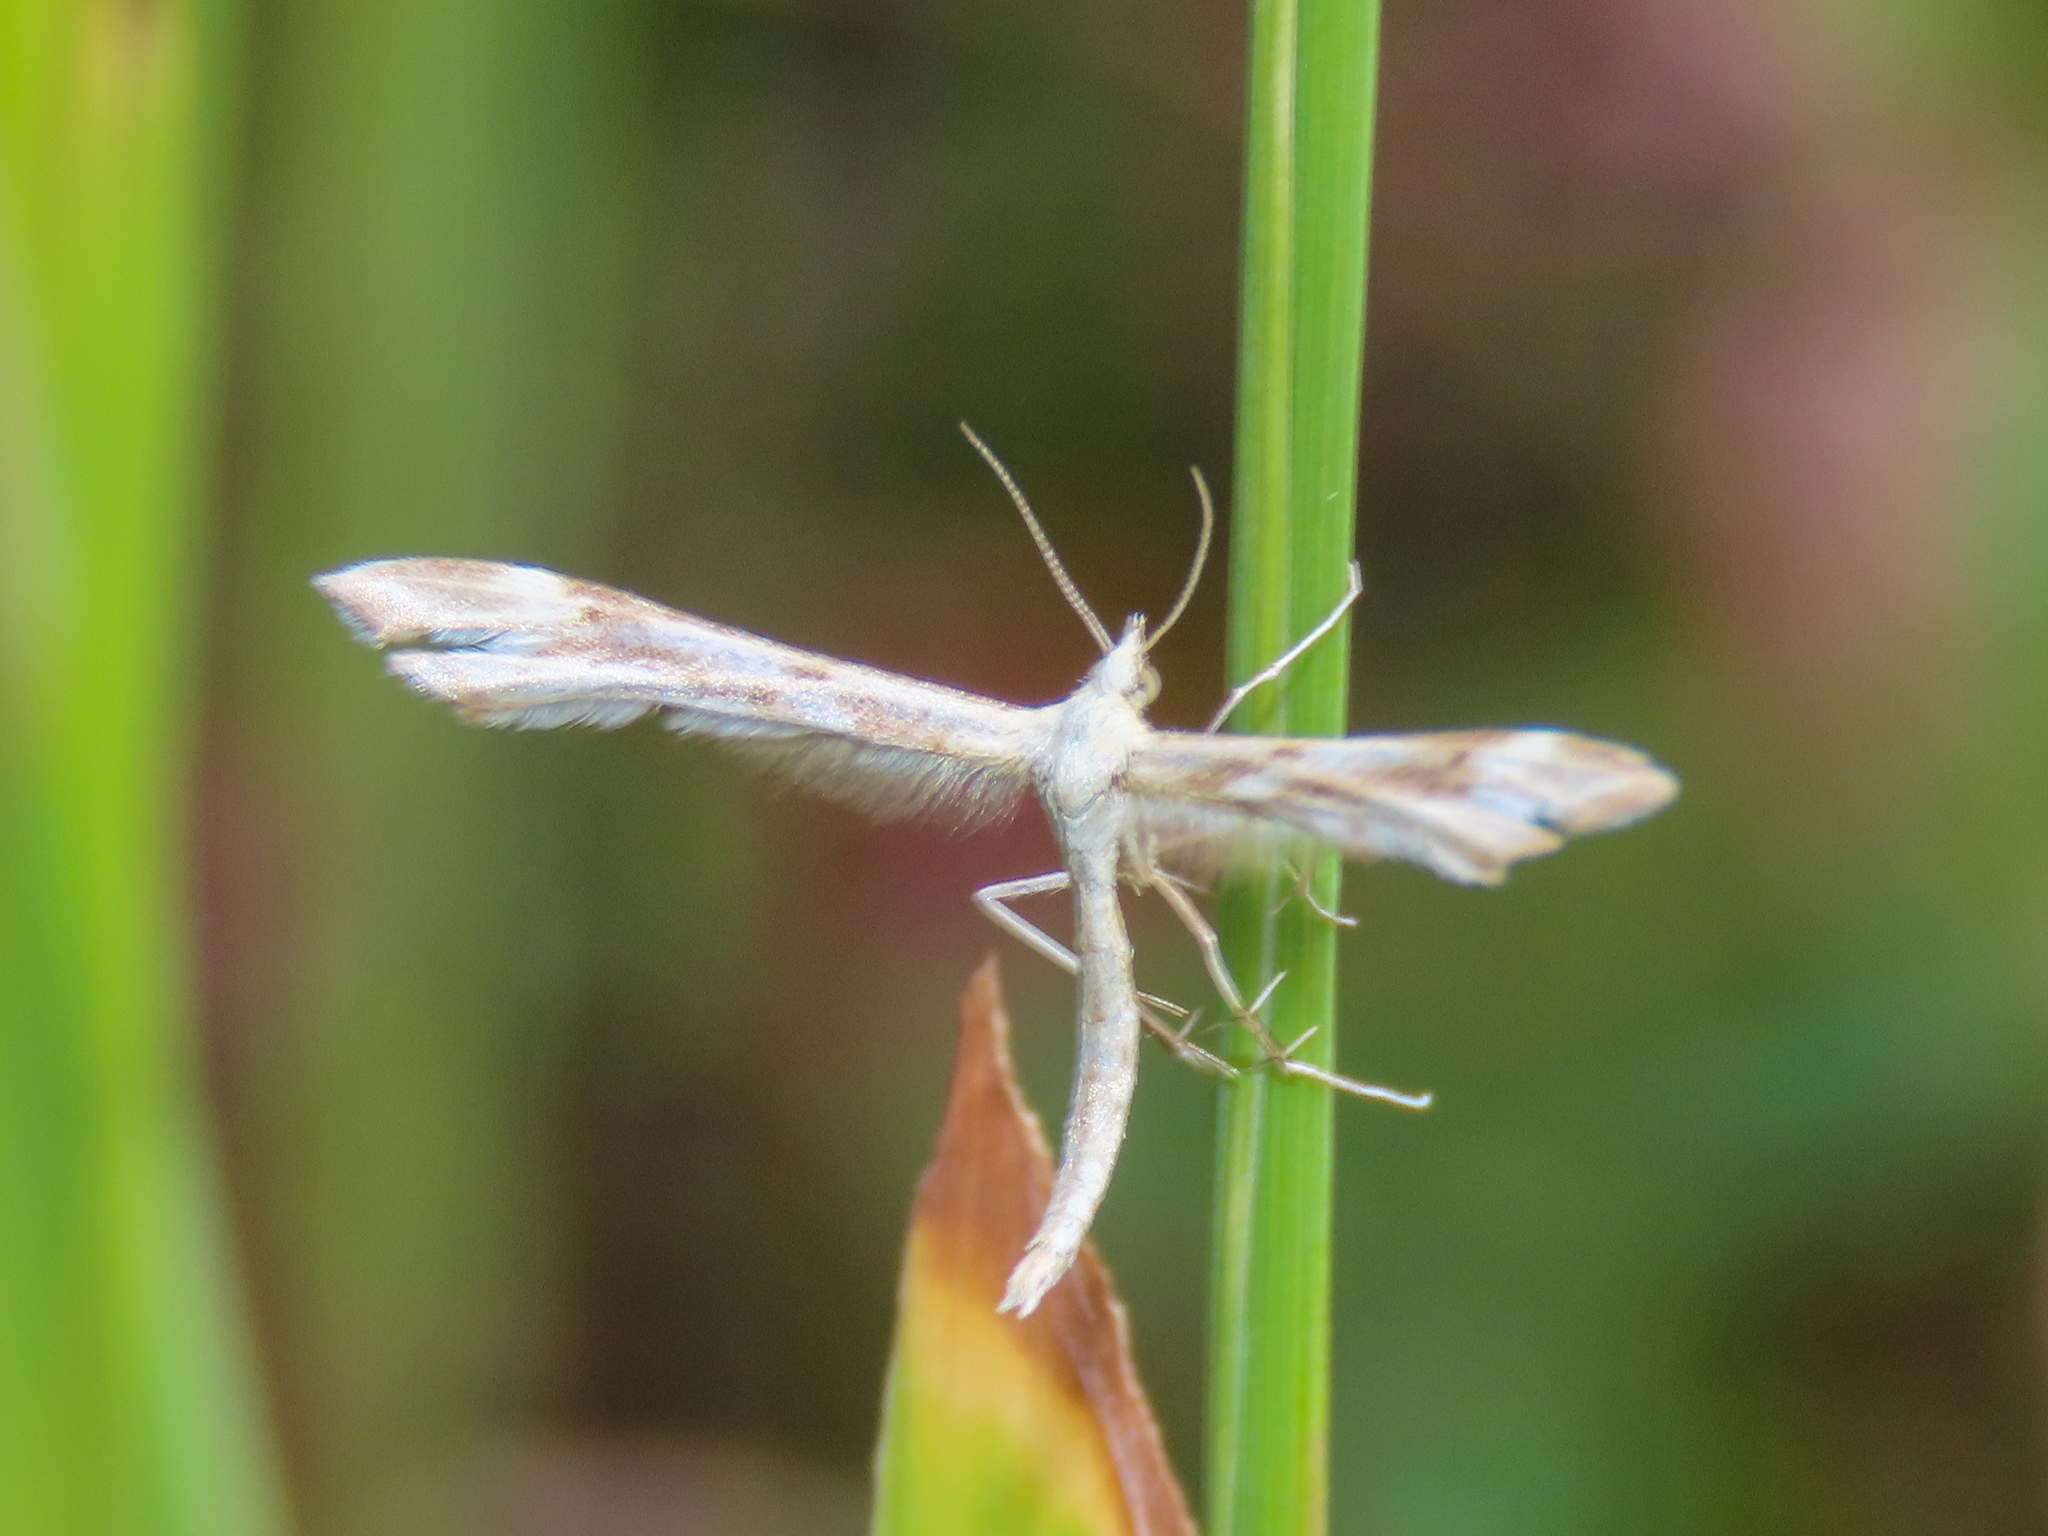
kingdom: Animalia
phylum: Arthropoda
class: Insecta
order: Lepidoptera
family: Pterophoridae
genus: Gillmeria
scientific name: Gillmeria pallidactyla
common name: Yarrow plume
